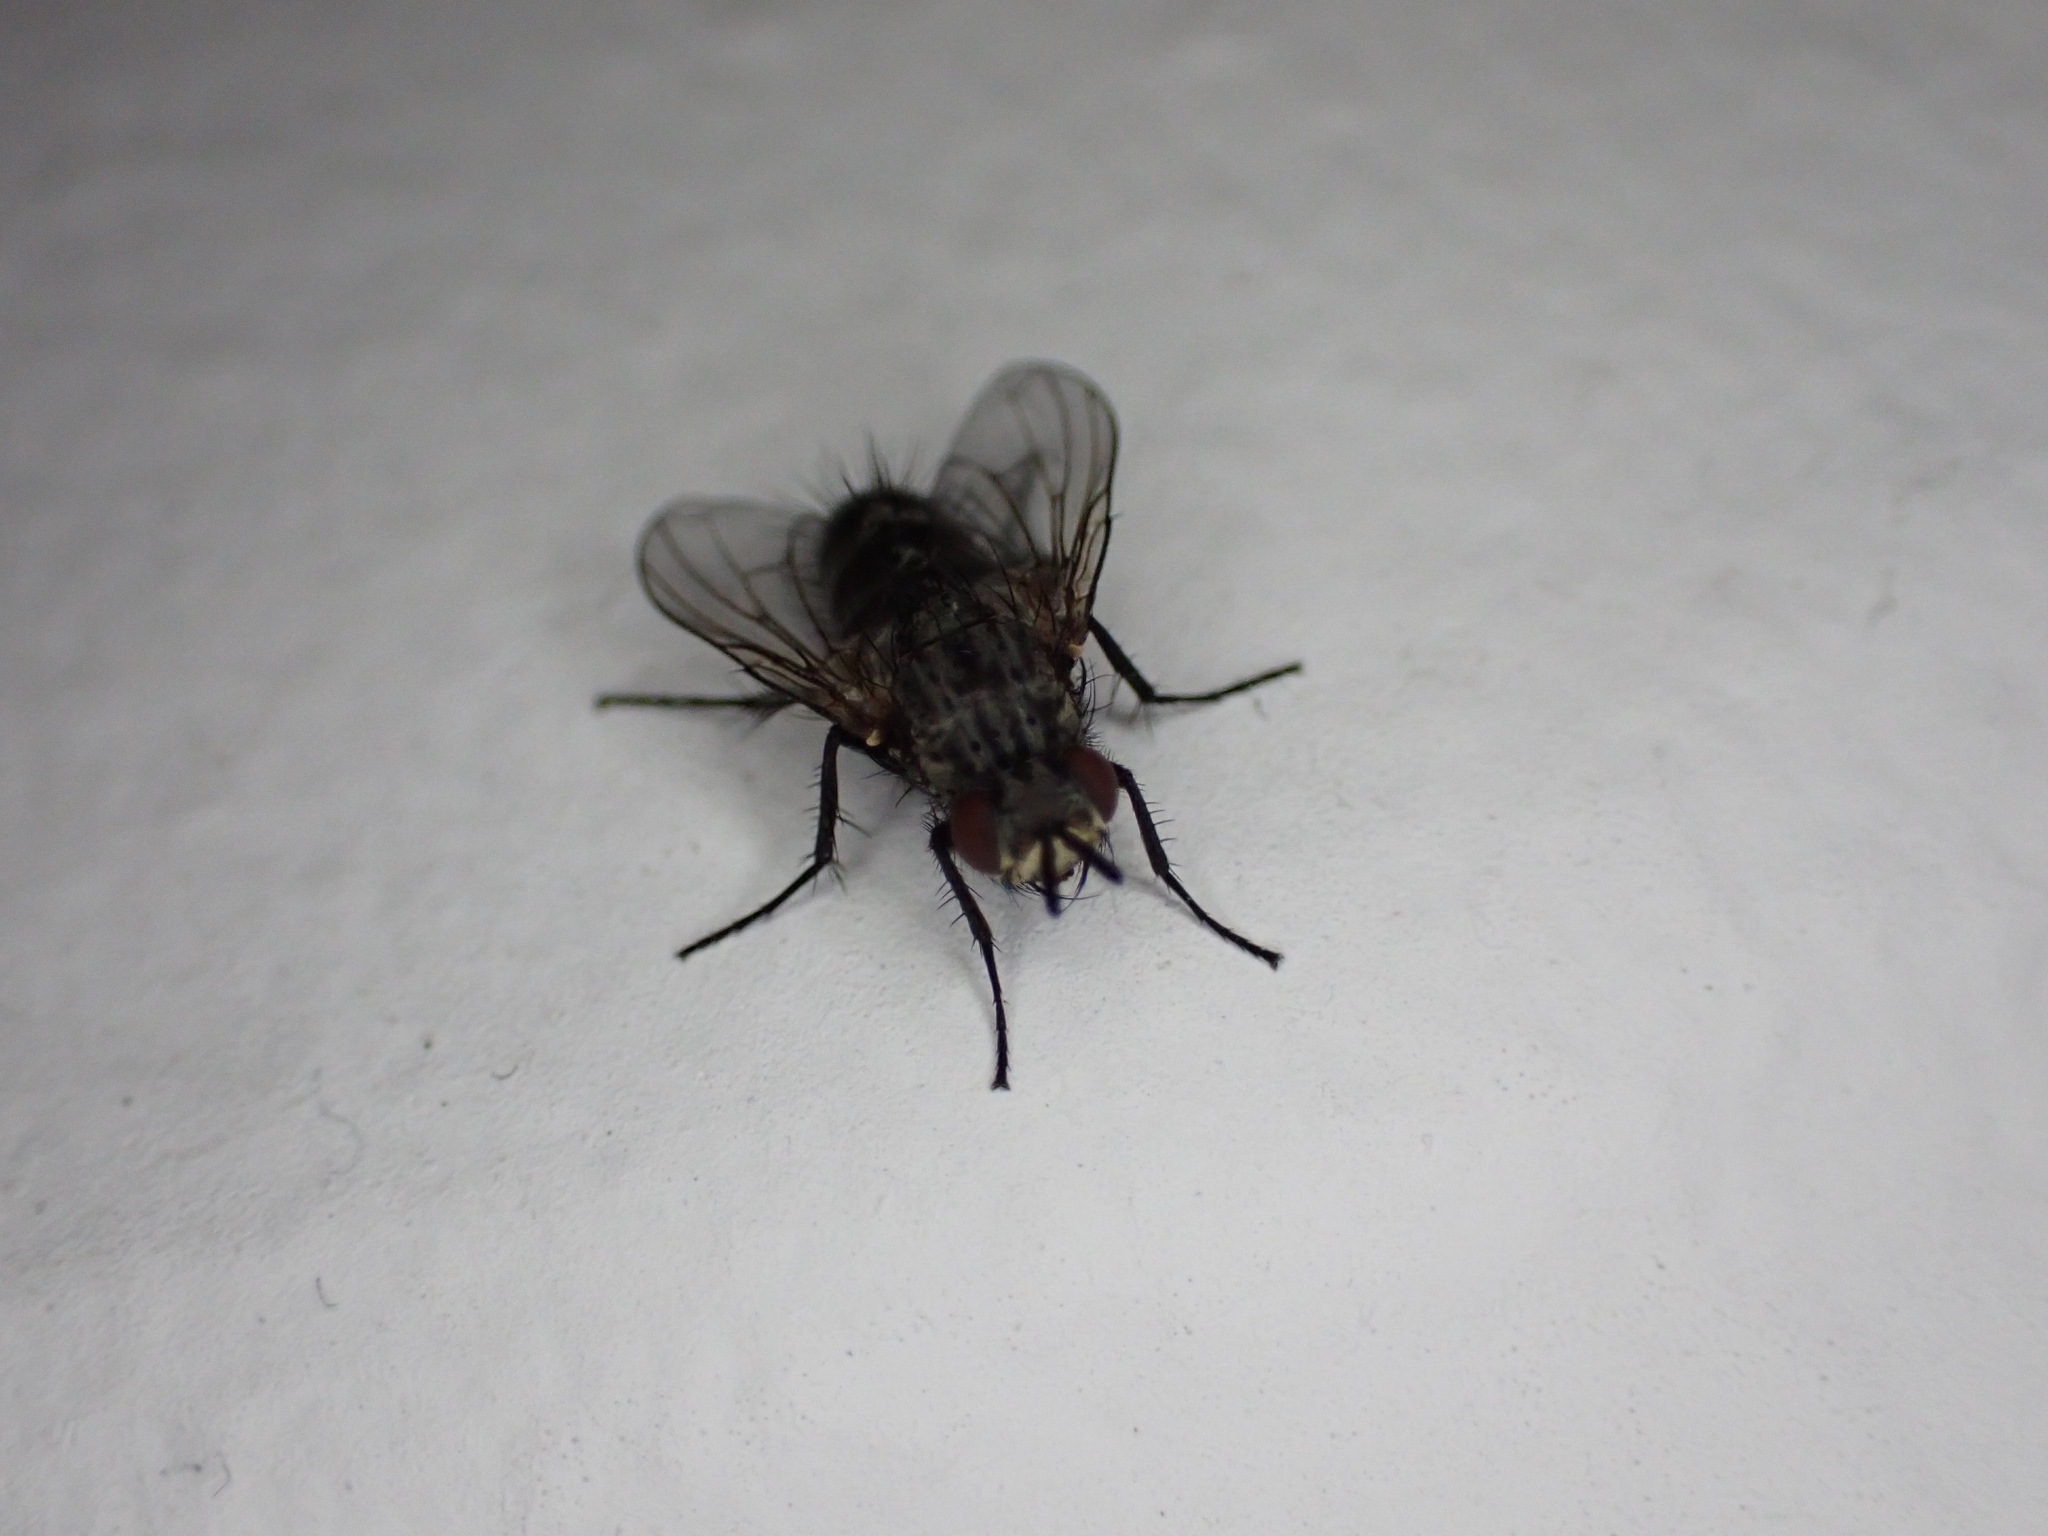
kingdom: Animalia
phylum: Arthropoda
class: Insecta
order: Diptera
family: Tachinidae
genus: Triarthria
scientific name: Triarthria setipennis
